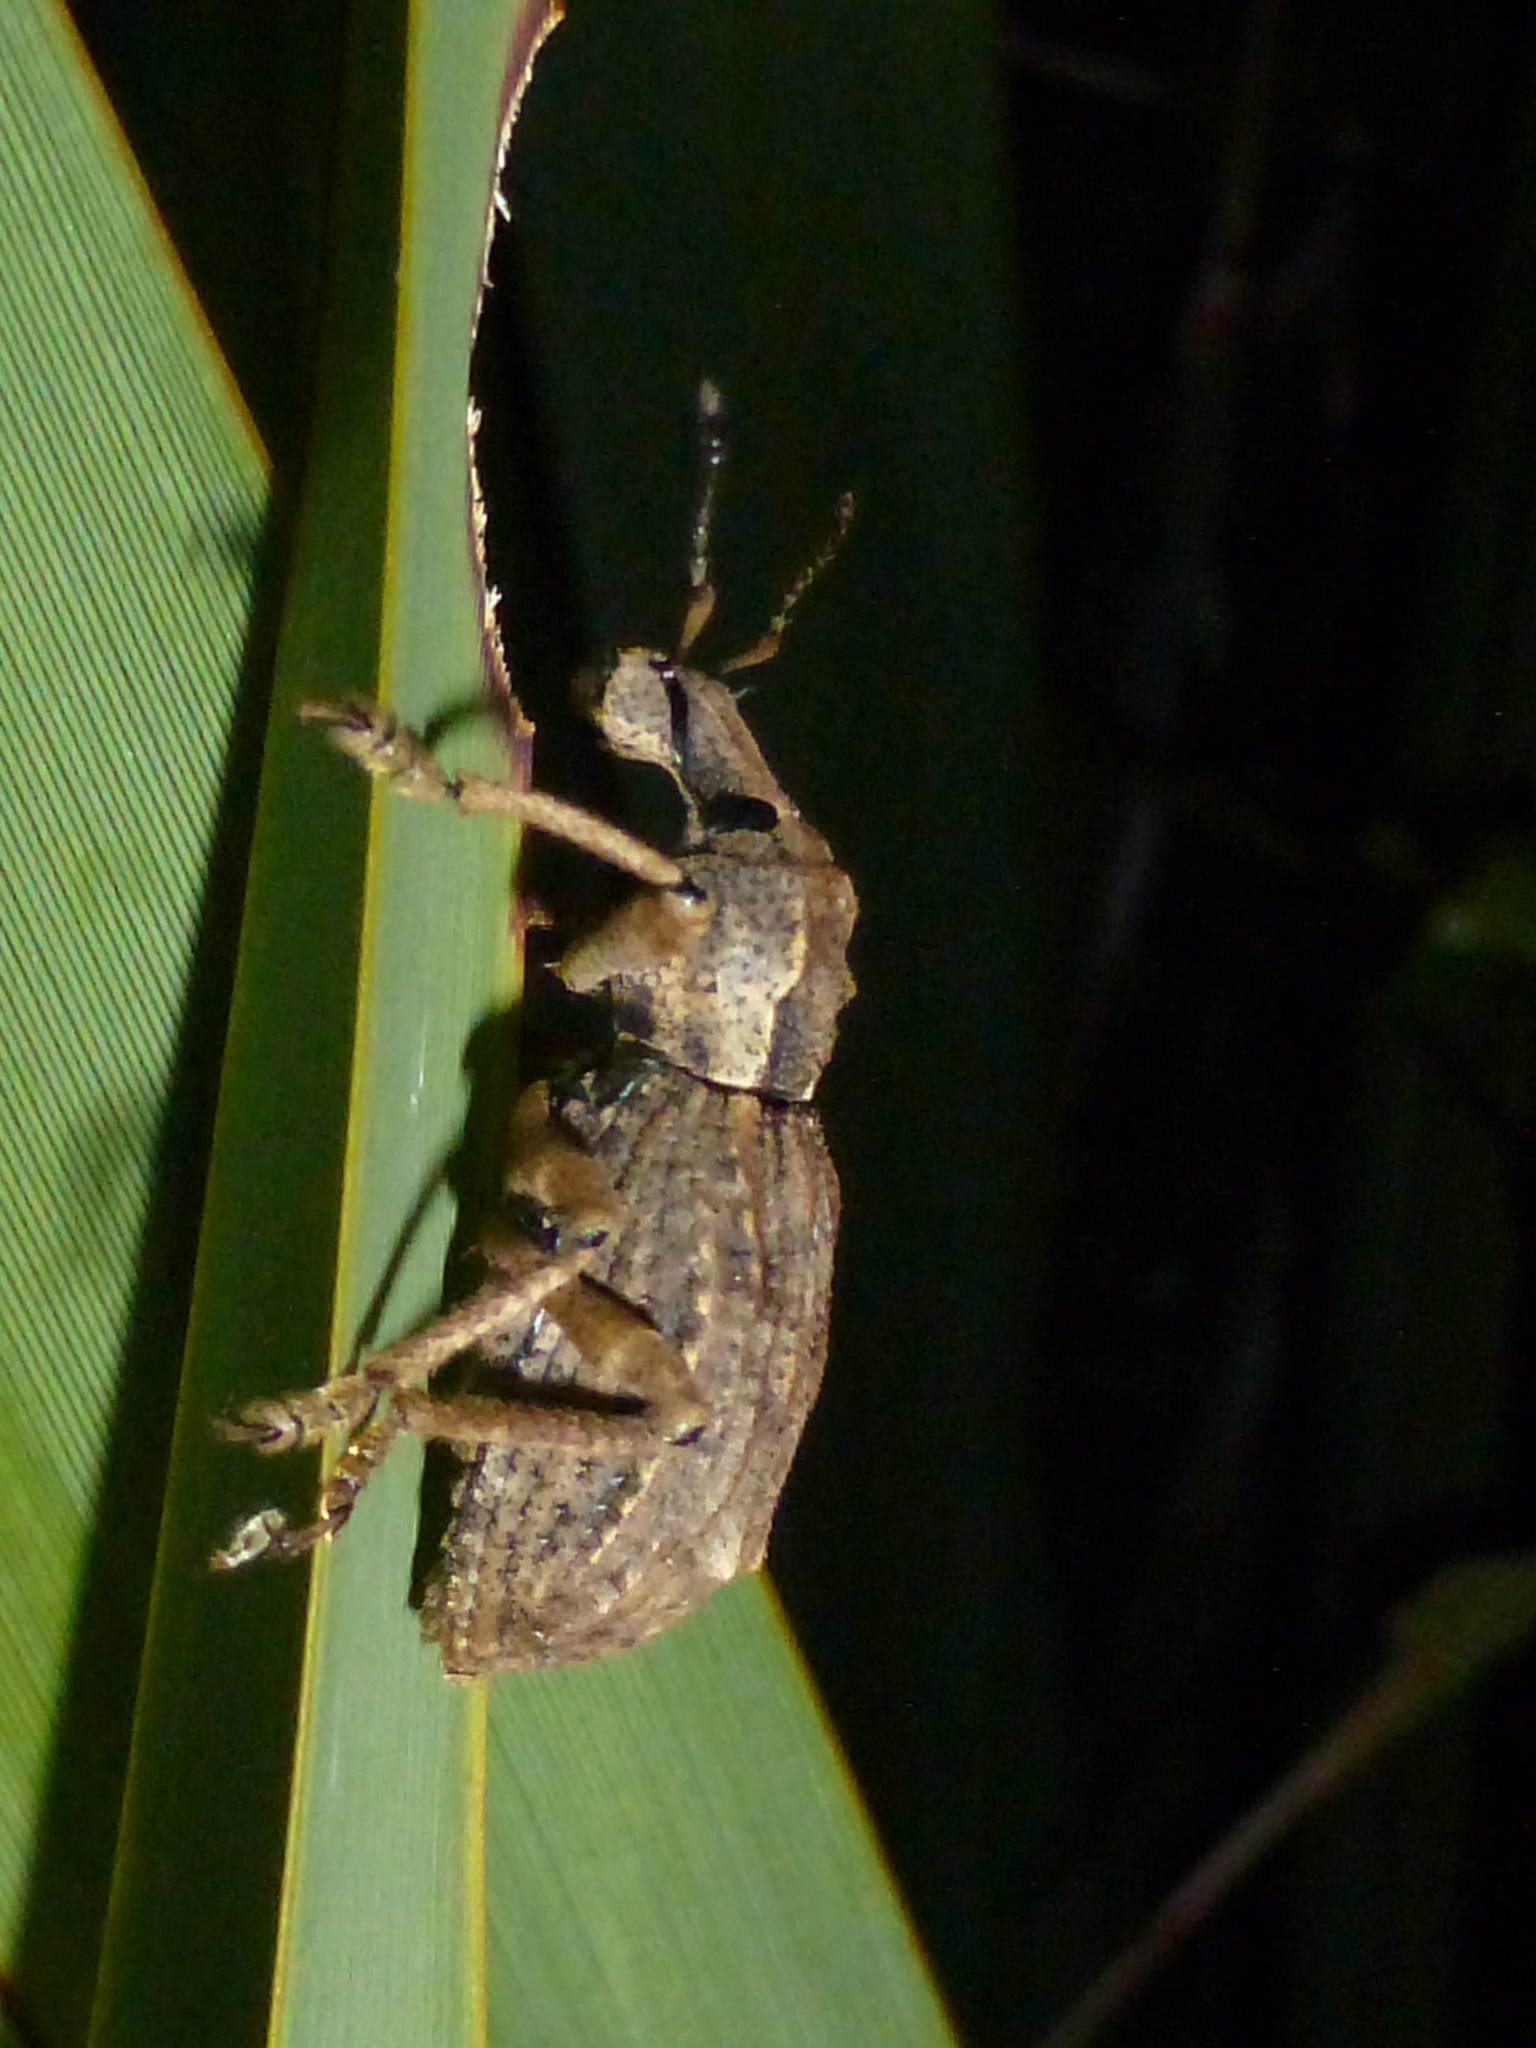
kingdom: Animalia
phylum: Arthropoda
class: Insecta
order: Coleoptera
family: Curculionidae
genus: Anagotus
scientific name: Anagotus fairburni
